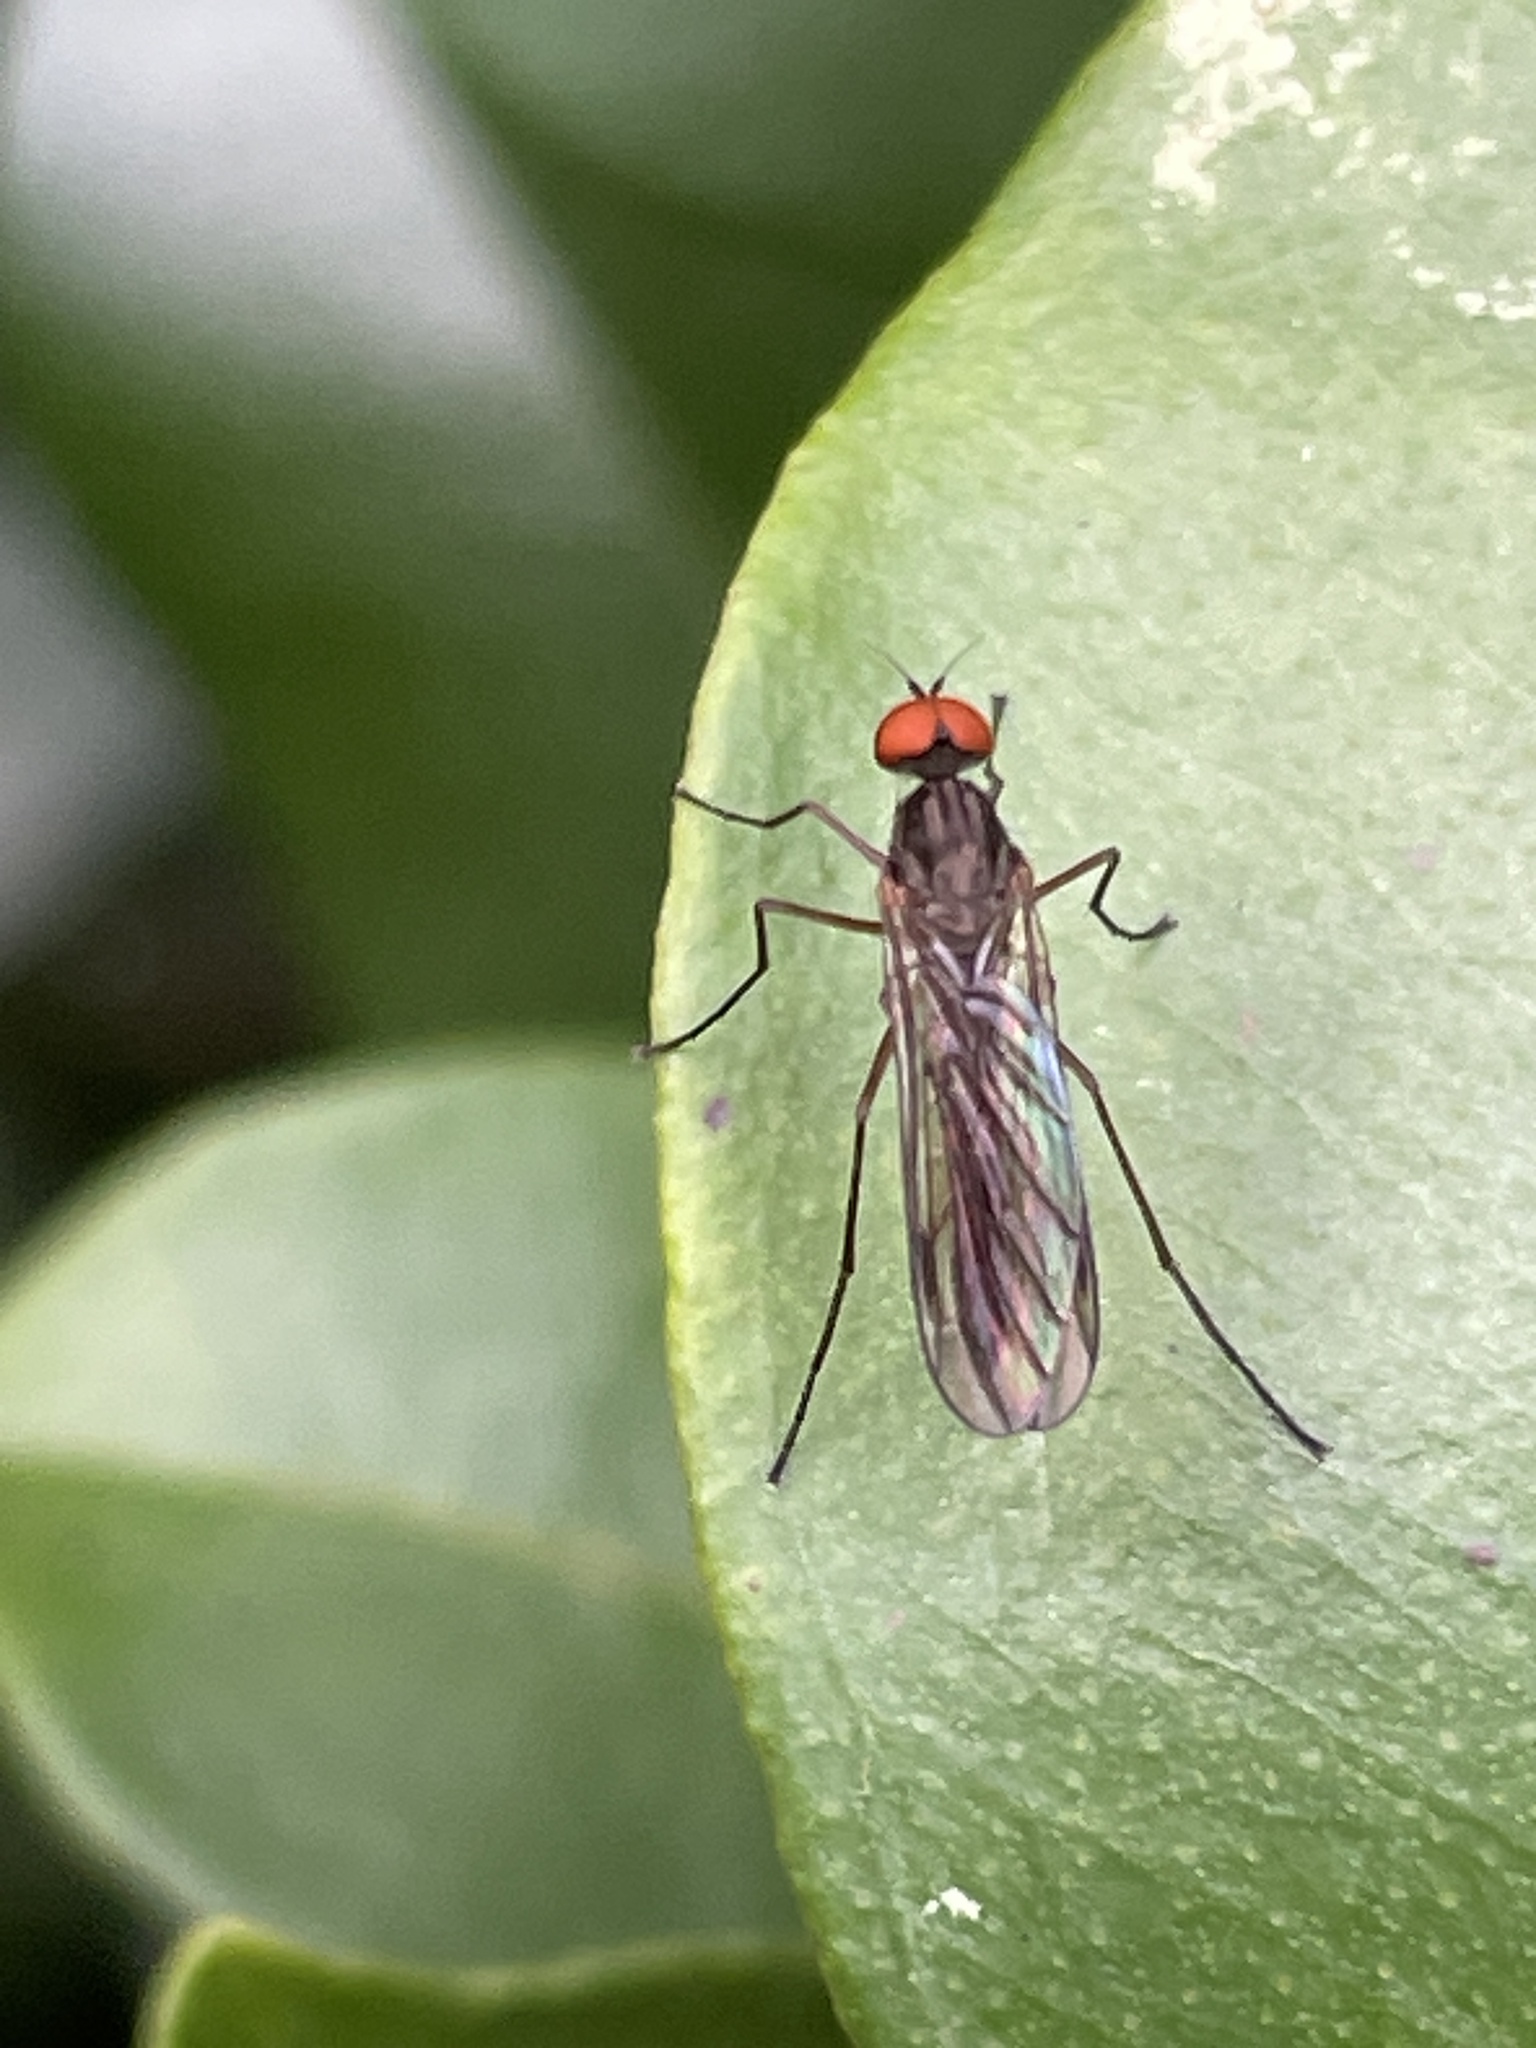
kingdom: Animalia
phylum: Arthropoda
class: Insecta
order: Diptera
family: Oreogetonidae
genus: Oreogeton
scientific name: Oreogeton
